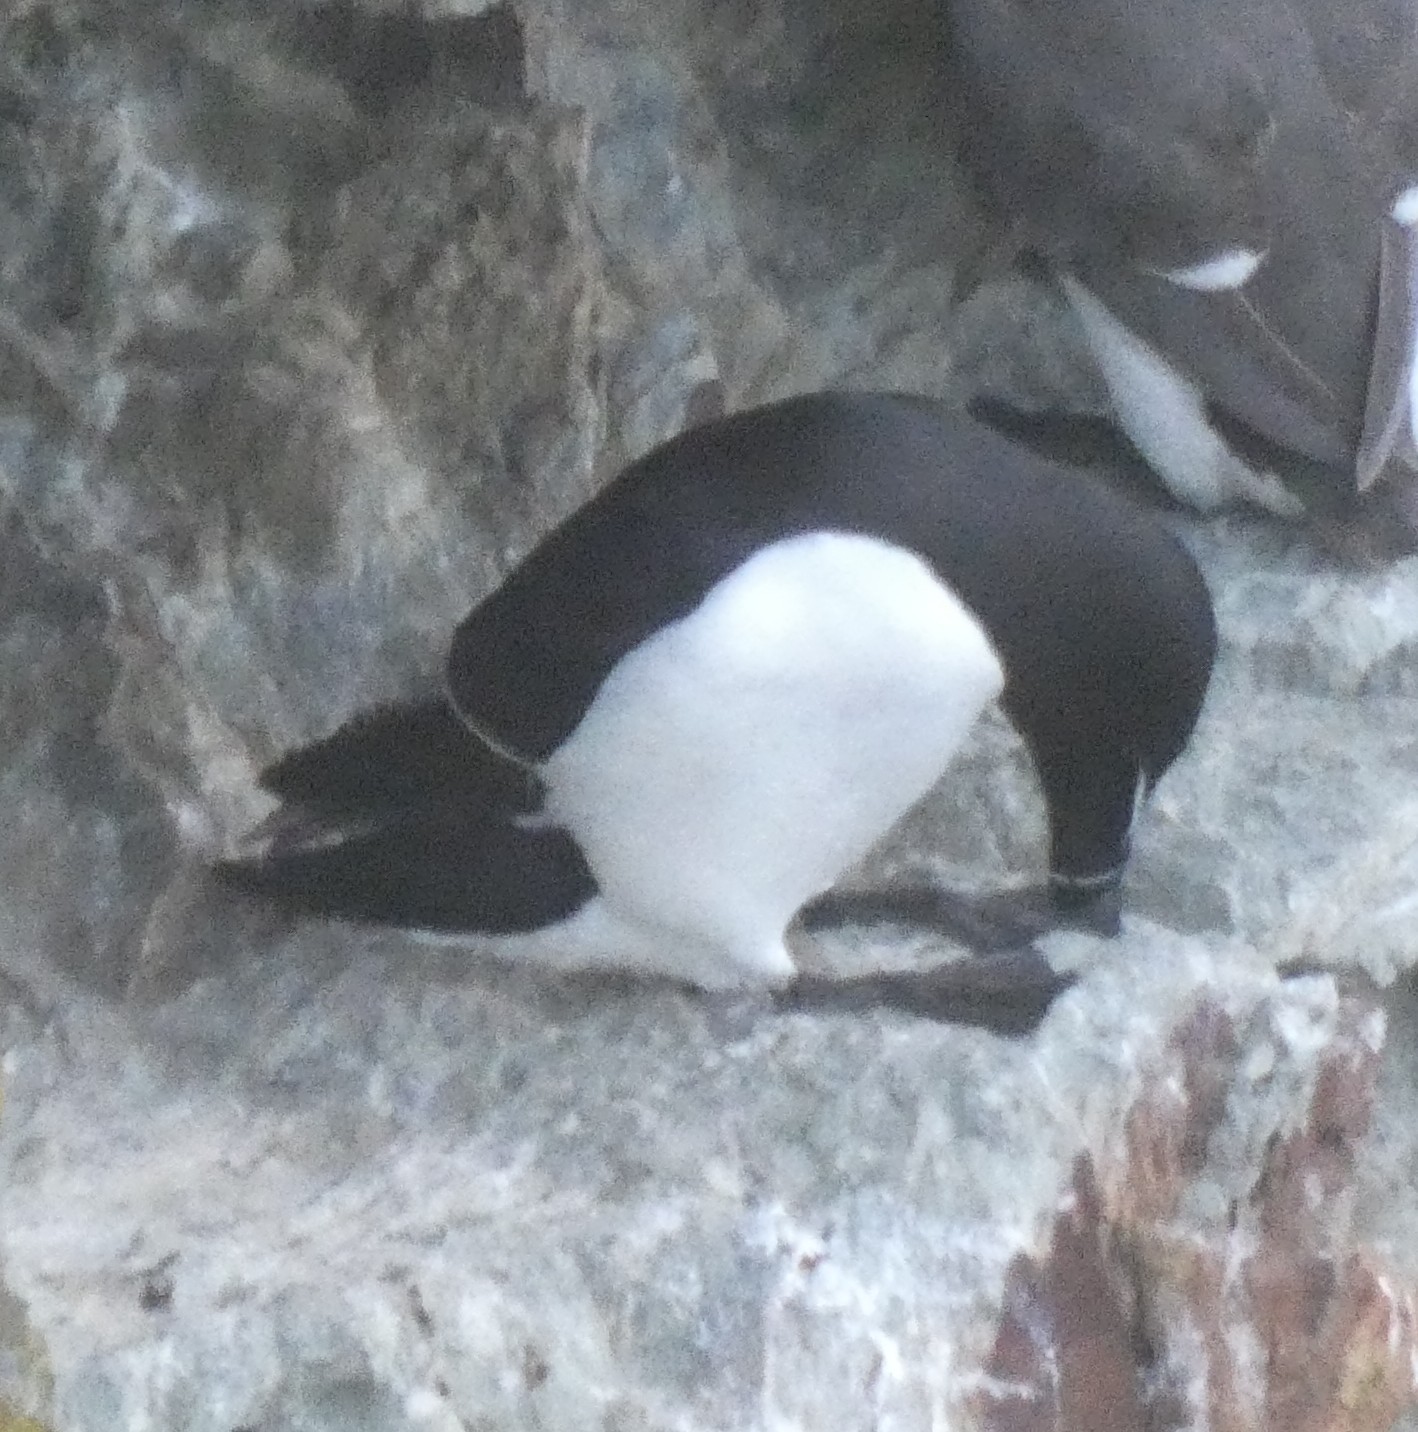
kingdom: Animalia
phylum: Chordata
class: Aves
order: Charadriiformes
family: Alcidae
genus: Alca
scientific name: Alca torda
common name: Razorbill
